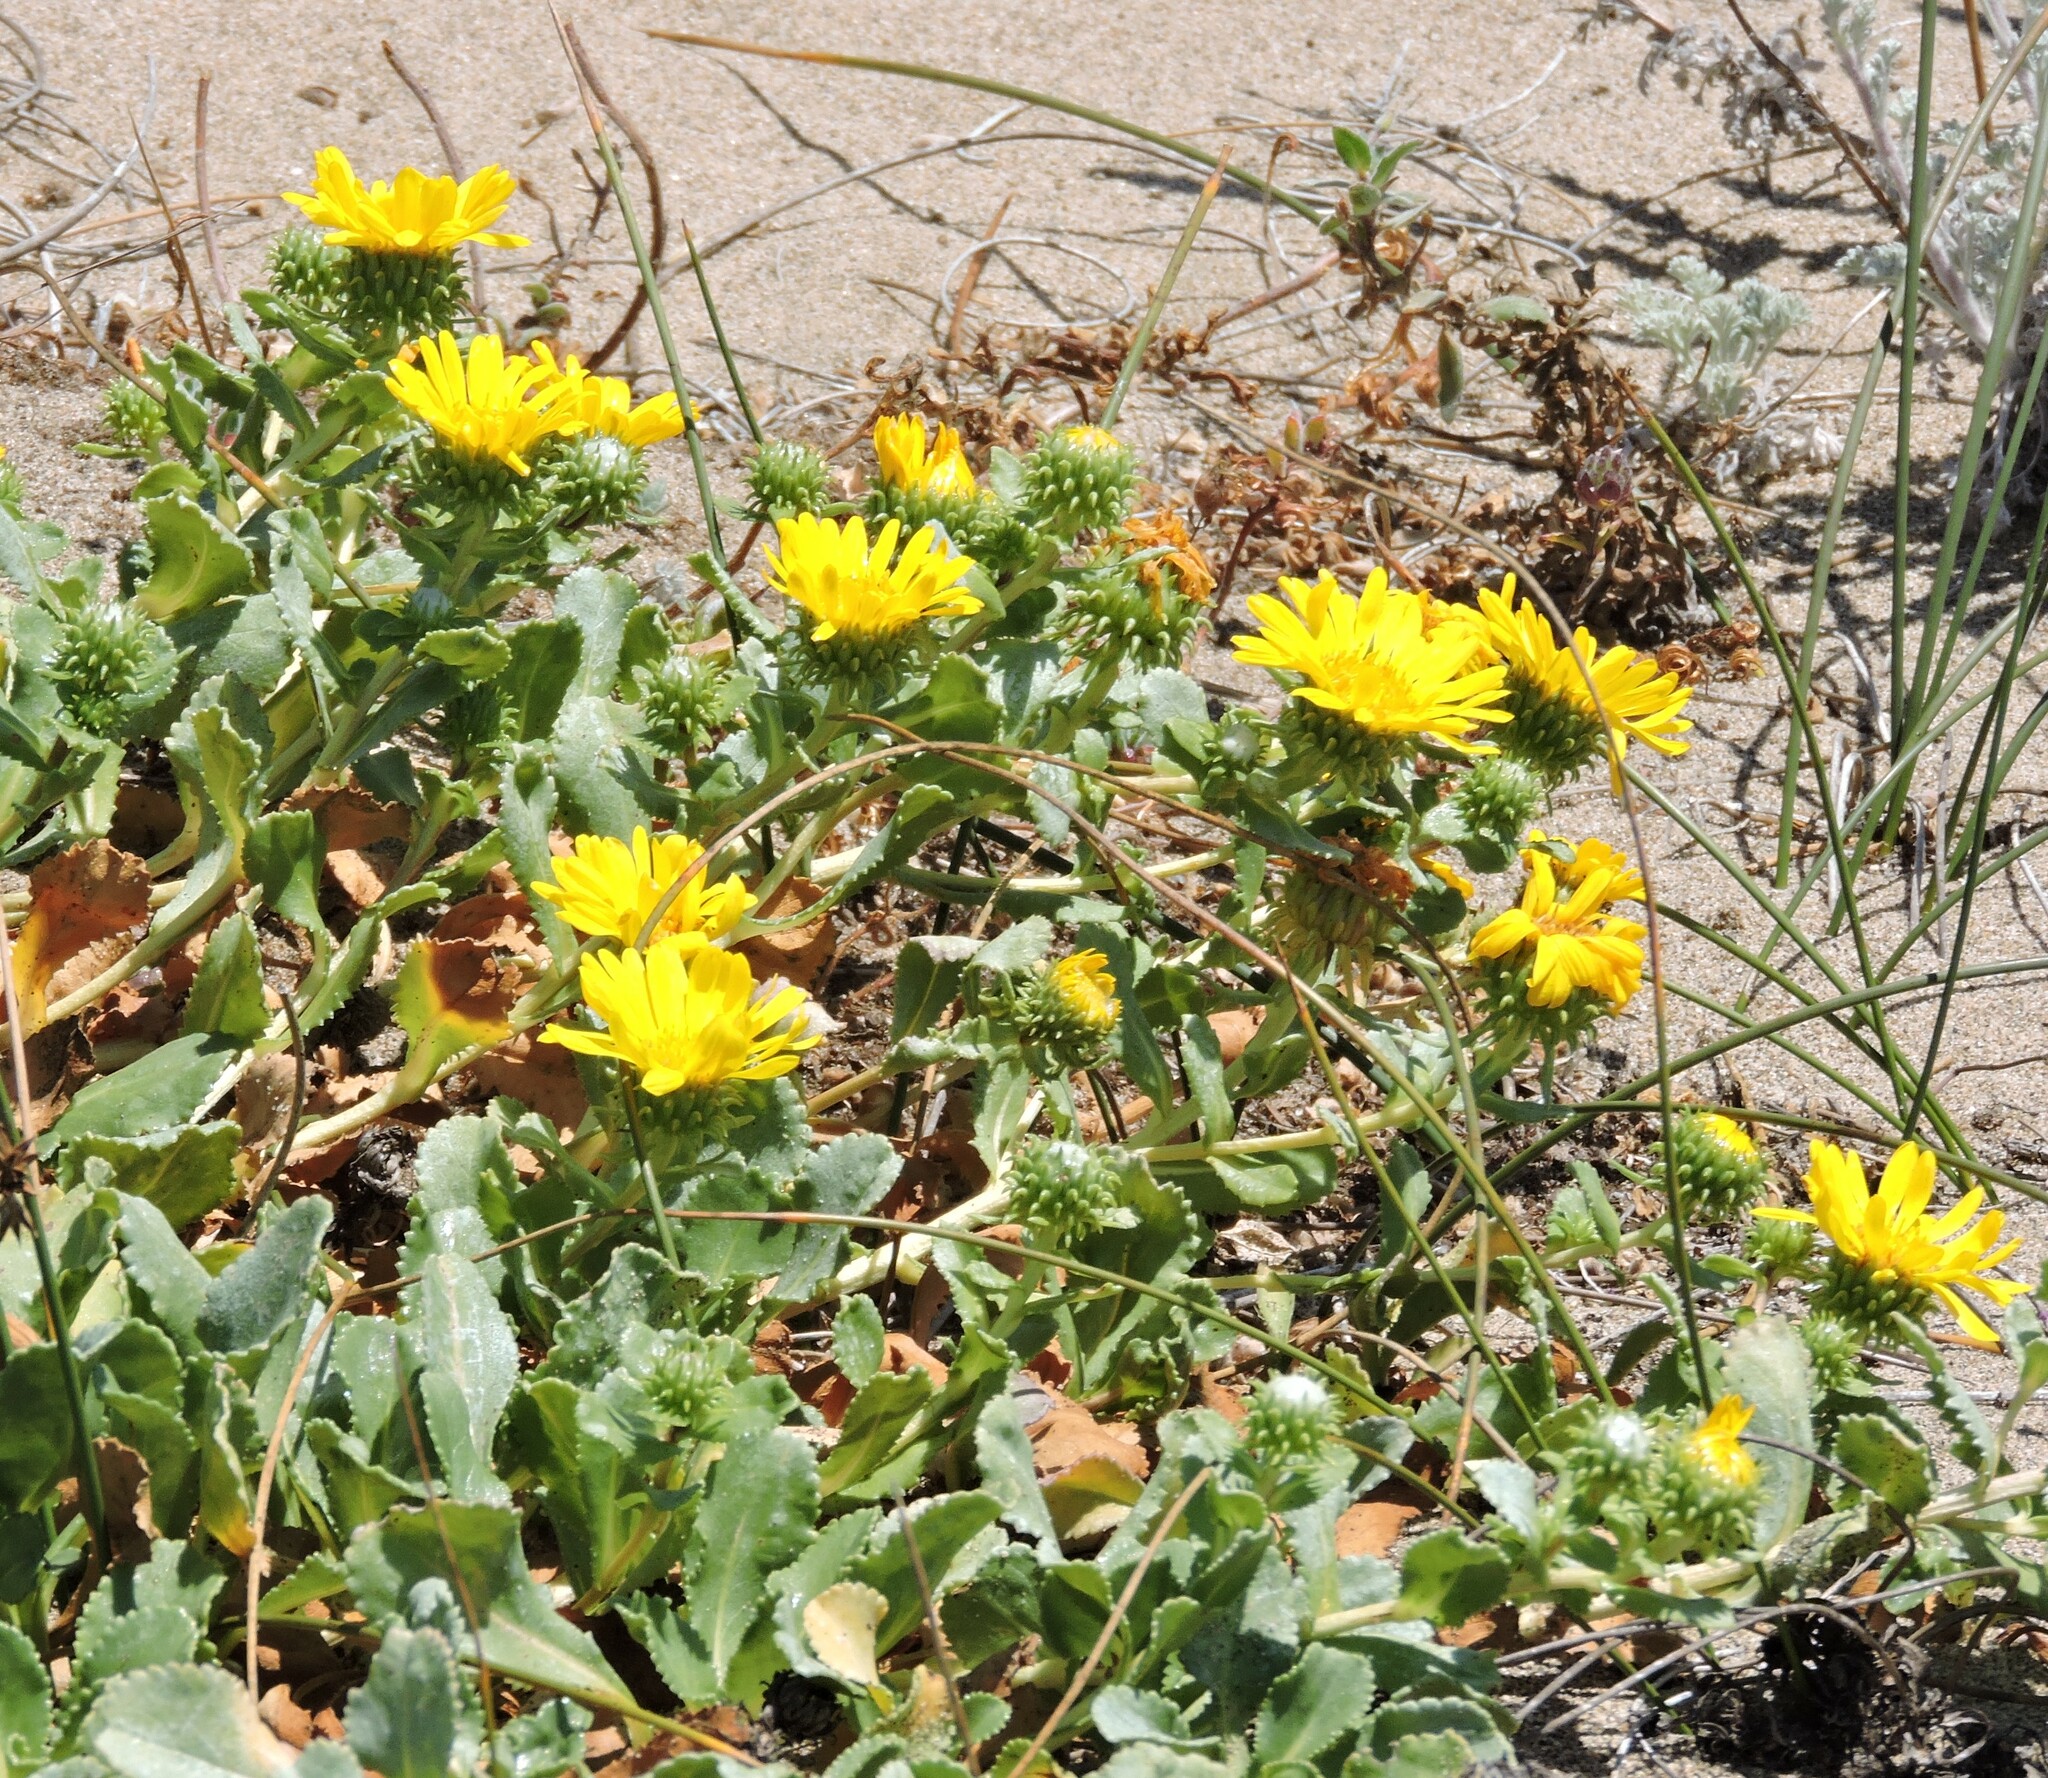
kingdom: Plantae
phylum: Tracheophyta
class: Magnoliopsida
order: Asterales
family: Asteraceae
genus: Grindelia
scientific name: Grindelia hirsutula
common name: Hairy gumweed
